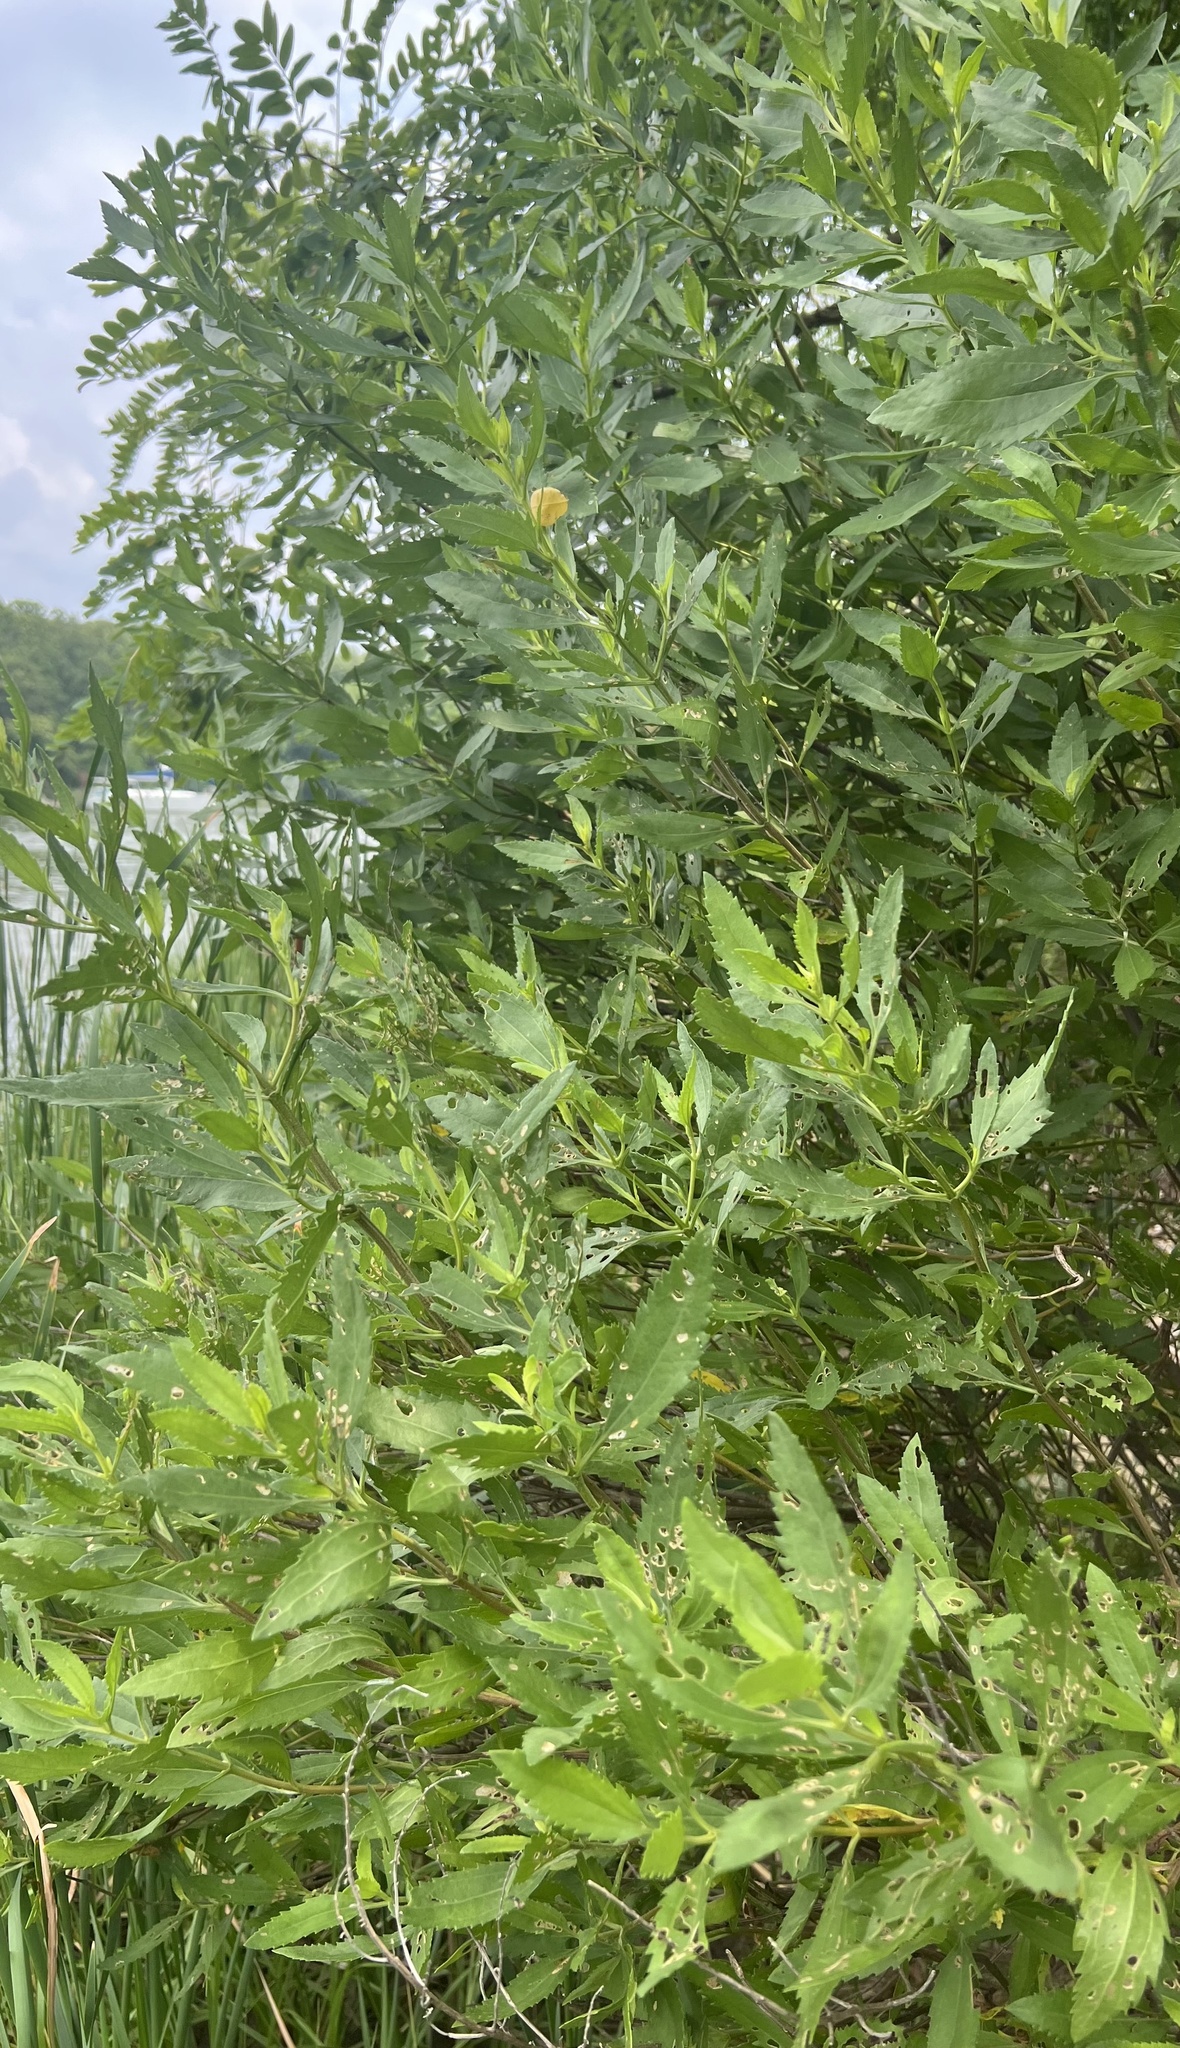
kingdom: Plantae
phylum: Tracheophyta
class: Magnoliopsida
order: Asterales
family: Asteraceae
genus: Baccharis
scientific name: Baccharis halimifolia
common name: Eastern baccharis
